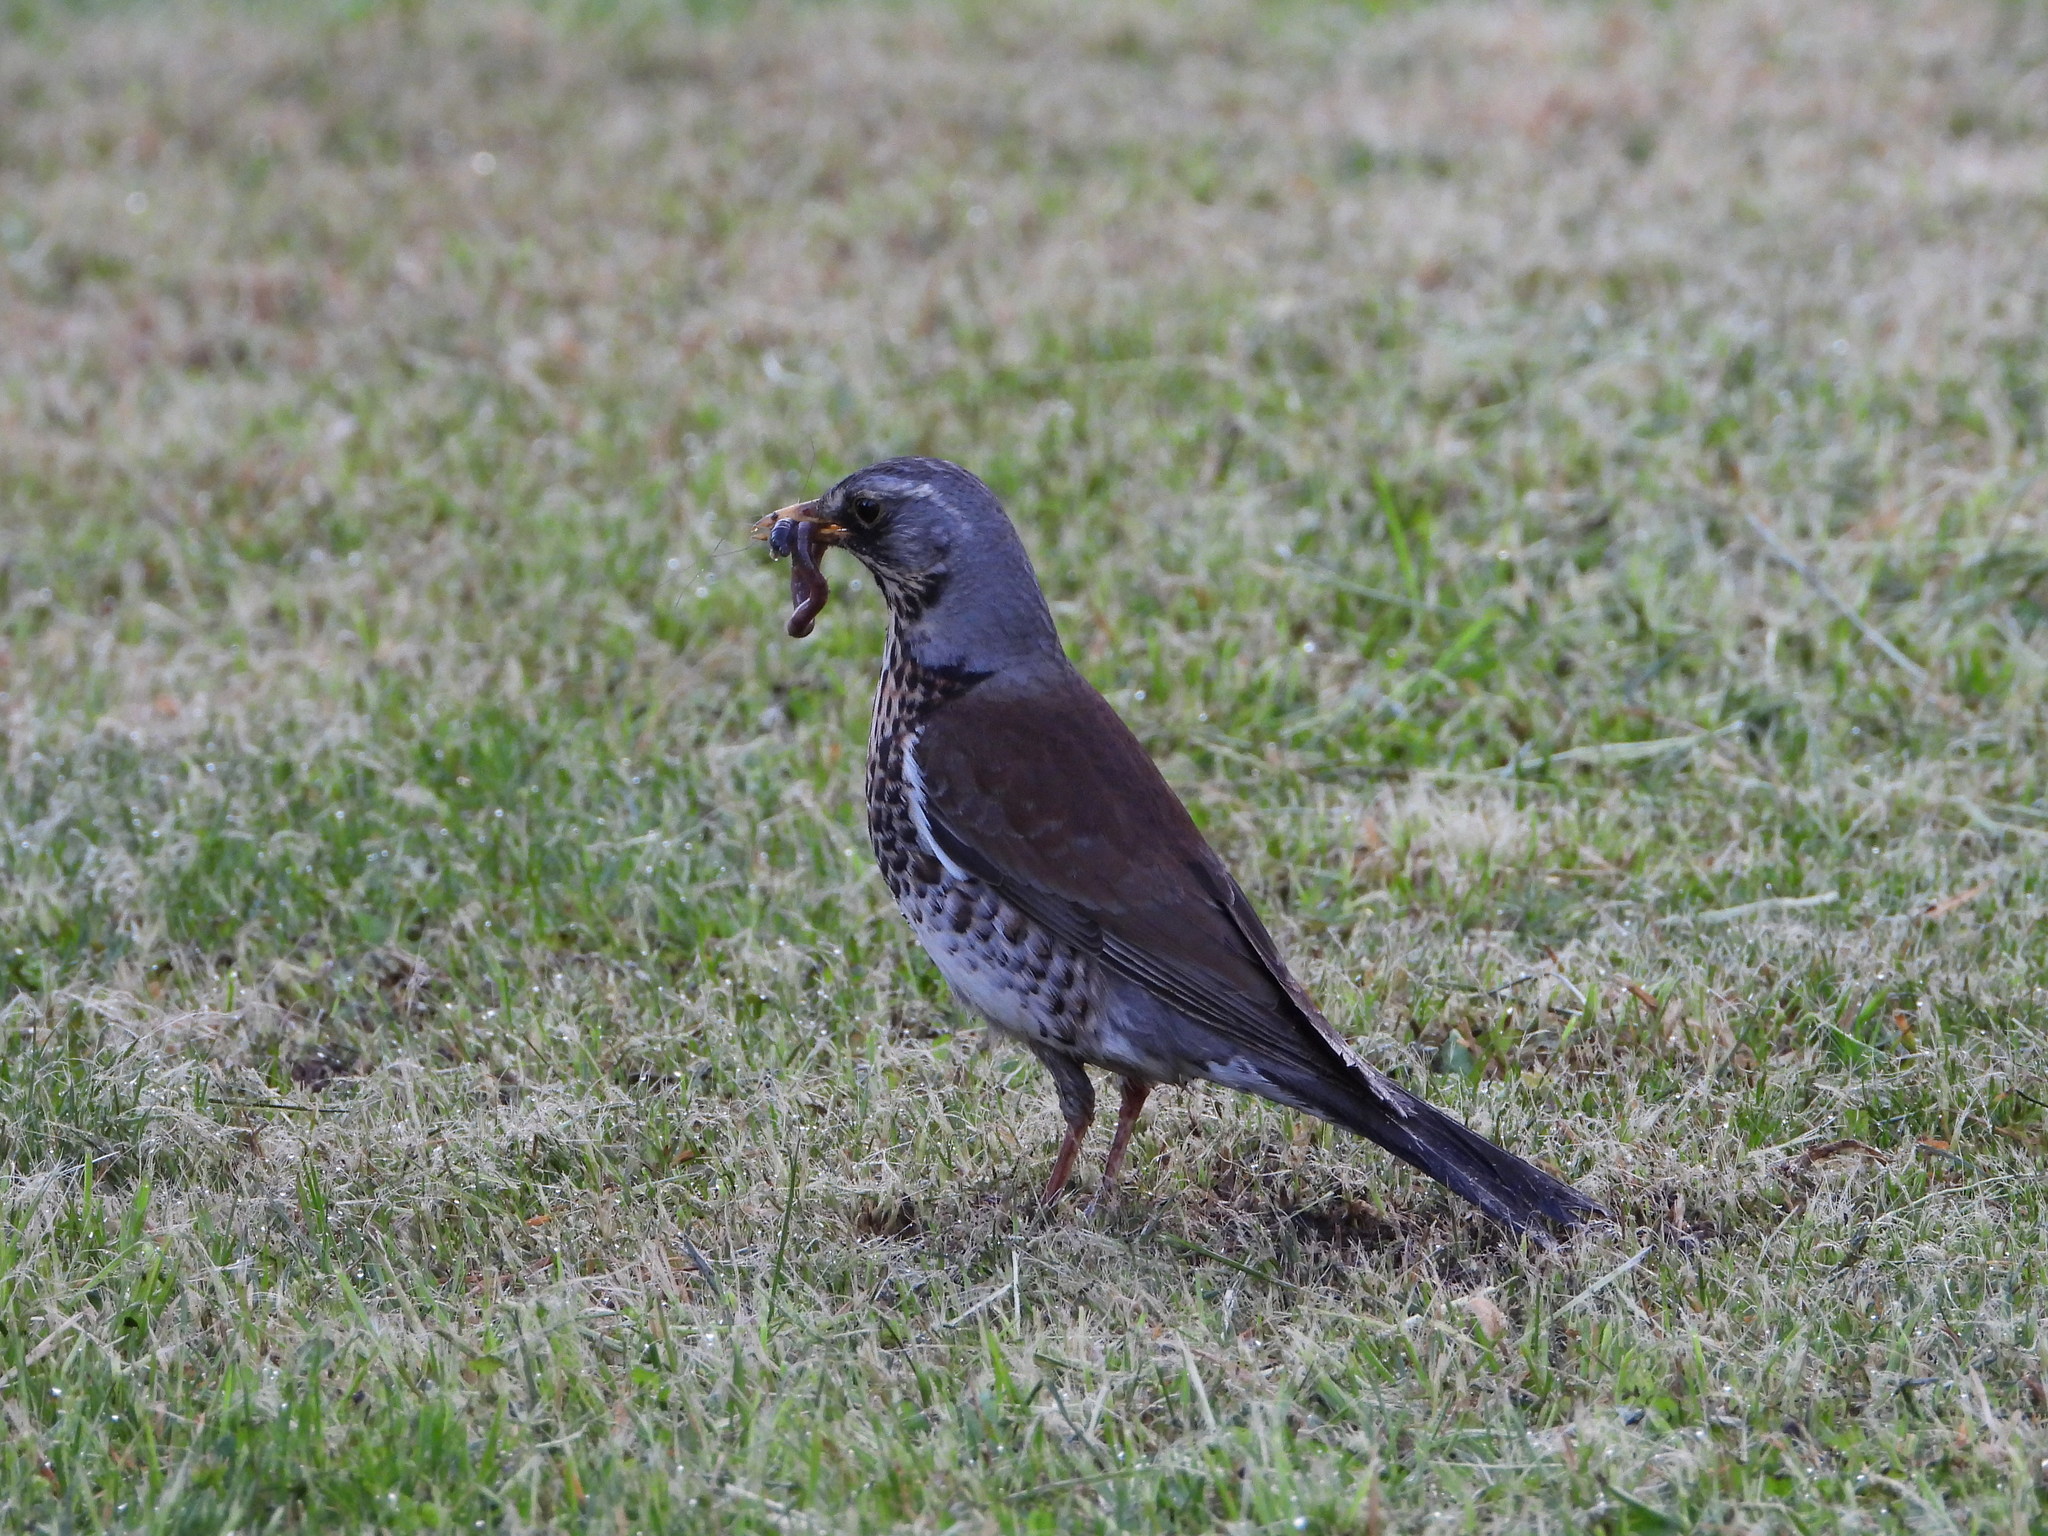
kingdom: Animalia
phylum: Chordata
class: Aves
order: Passeriformes
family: Turdidae
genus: Turdus
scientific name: Turdus pilaris
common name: Fieldfare
